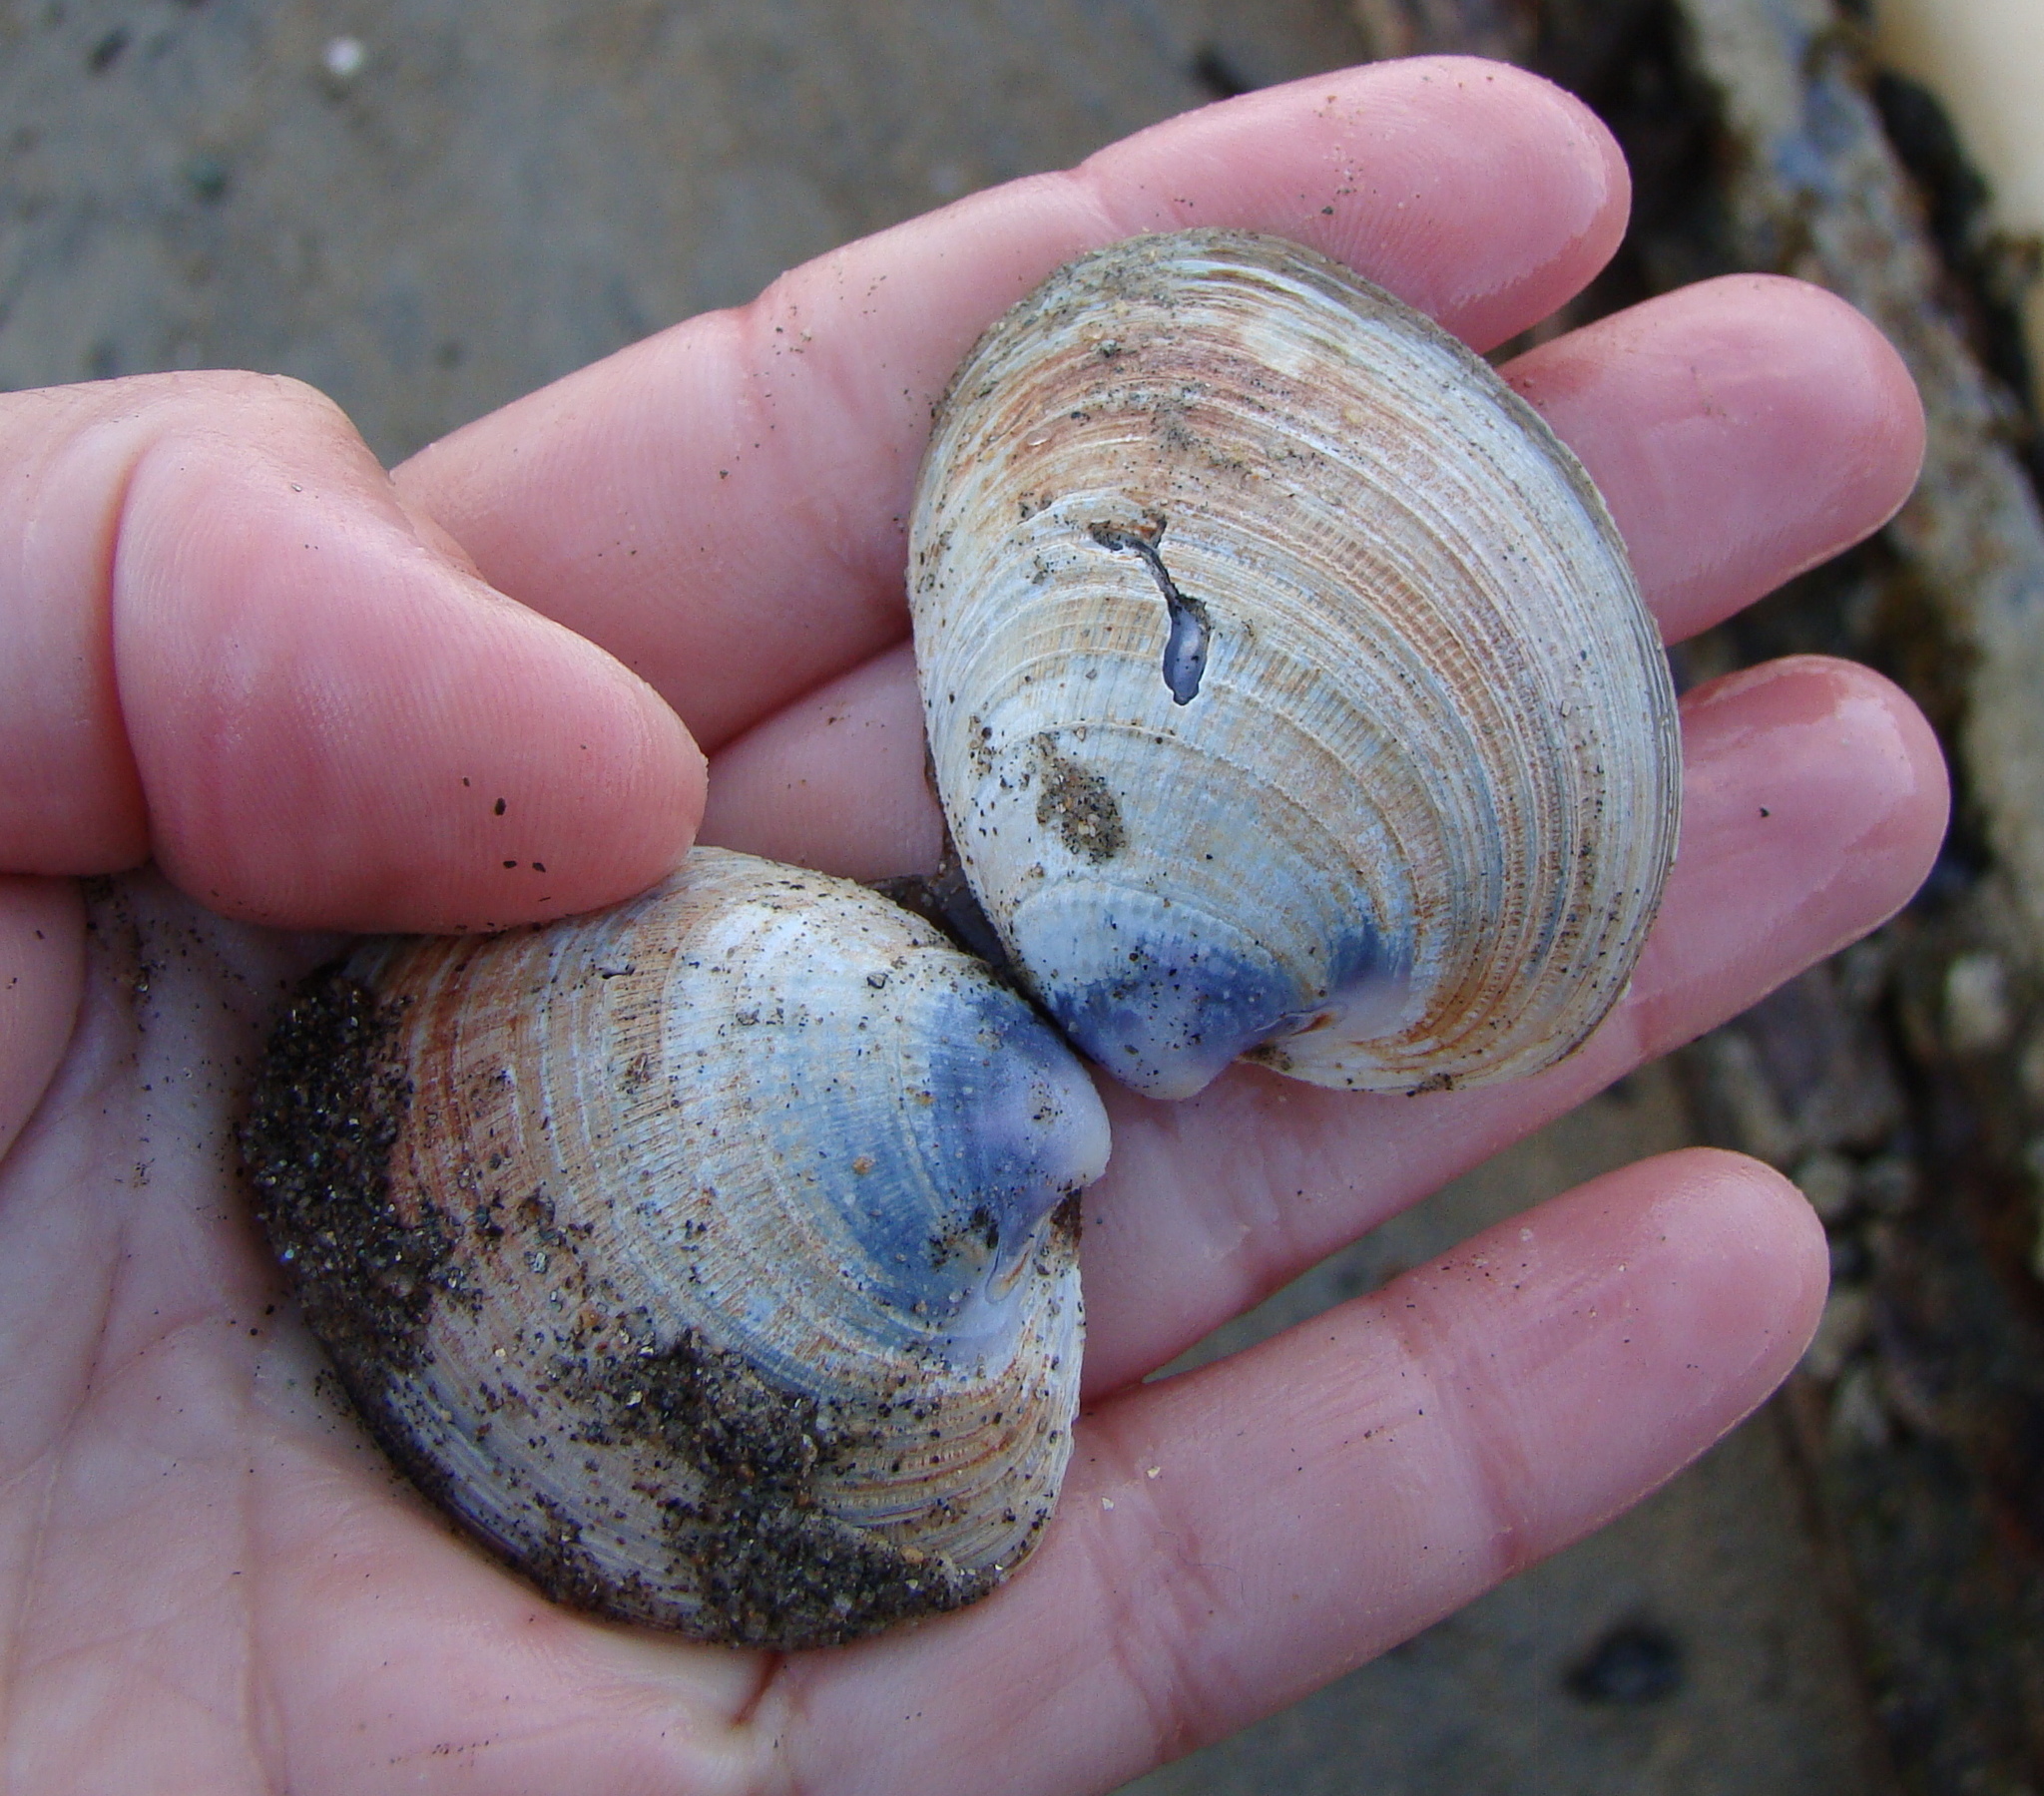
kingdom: Animalia
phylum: Mollusca
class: Bivalvia
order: Venerida
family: Veneridae
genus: Austrovenus
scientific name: Austrovenus stutchburyi
